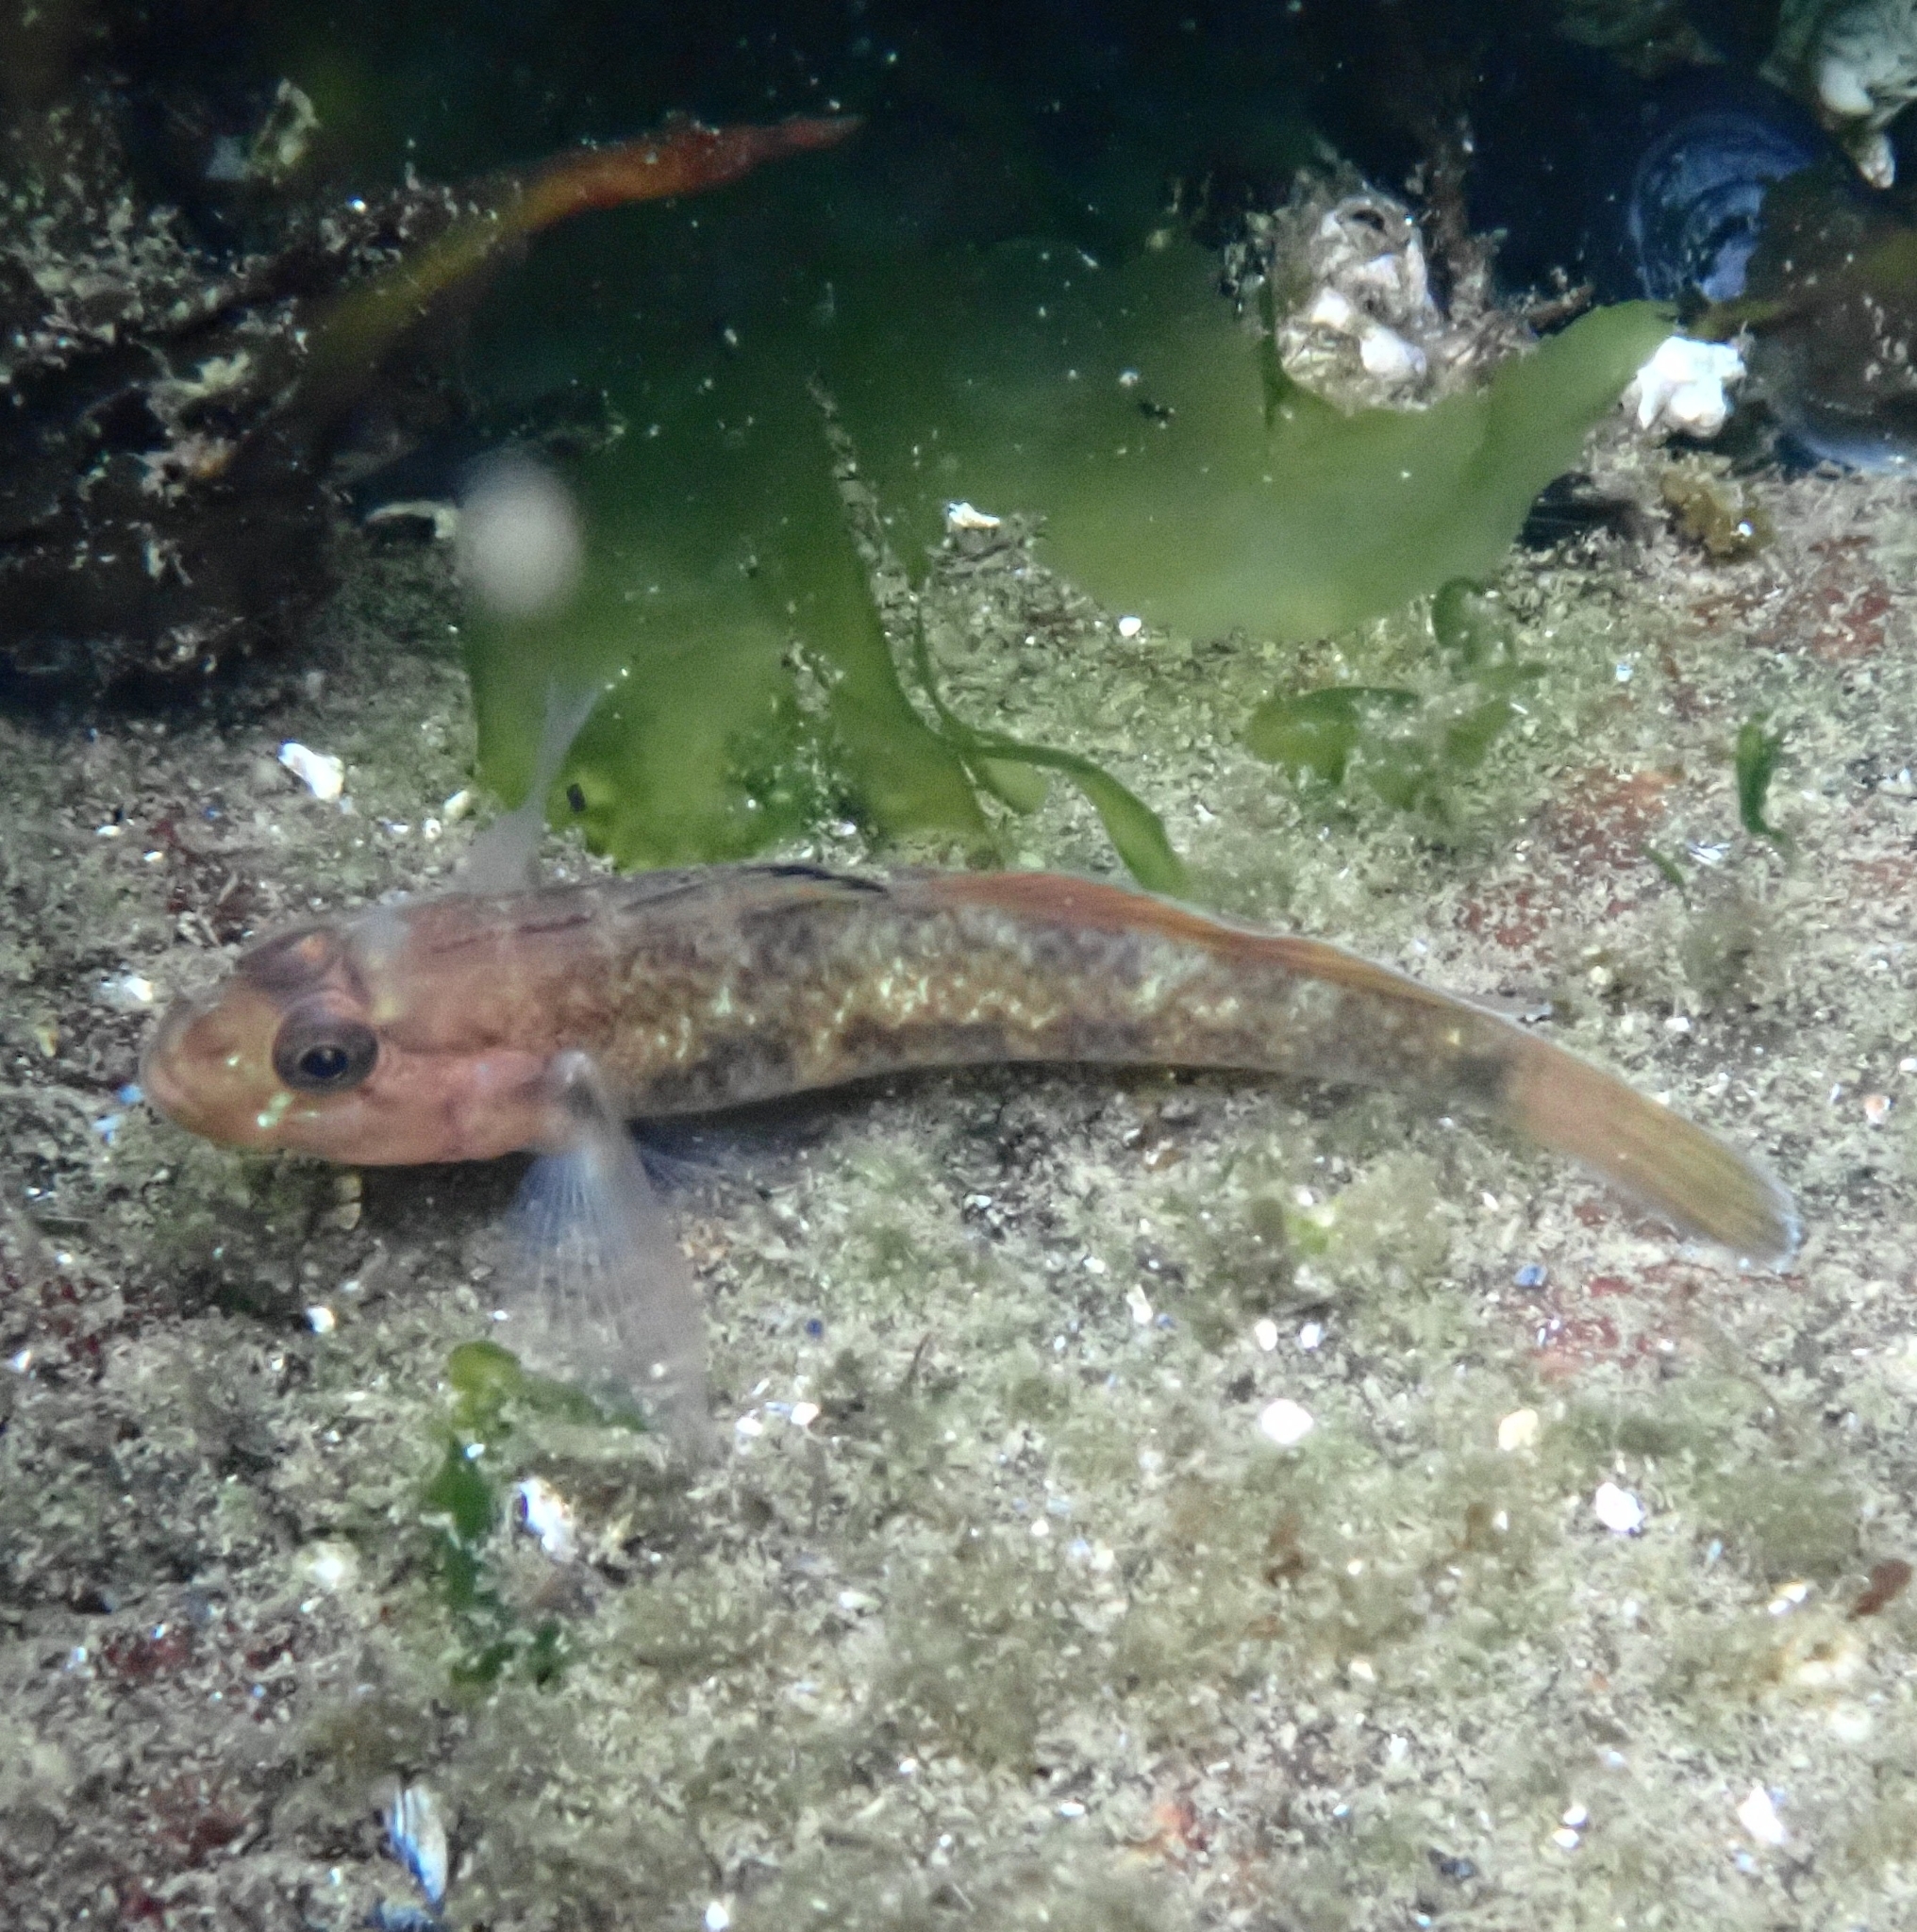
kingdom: Animalia
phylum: Chordata
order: Perciformes
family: Gobiidae
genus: Rhinogobiops
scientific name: Rhinogobiops nicholsii
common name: Blackeye goby
